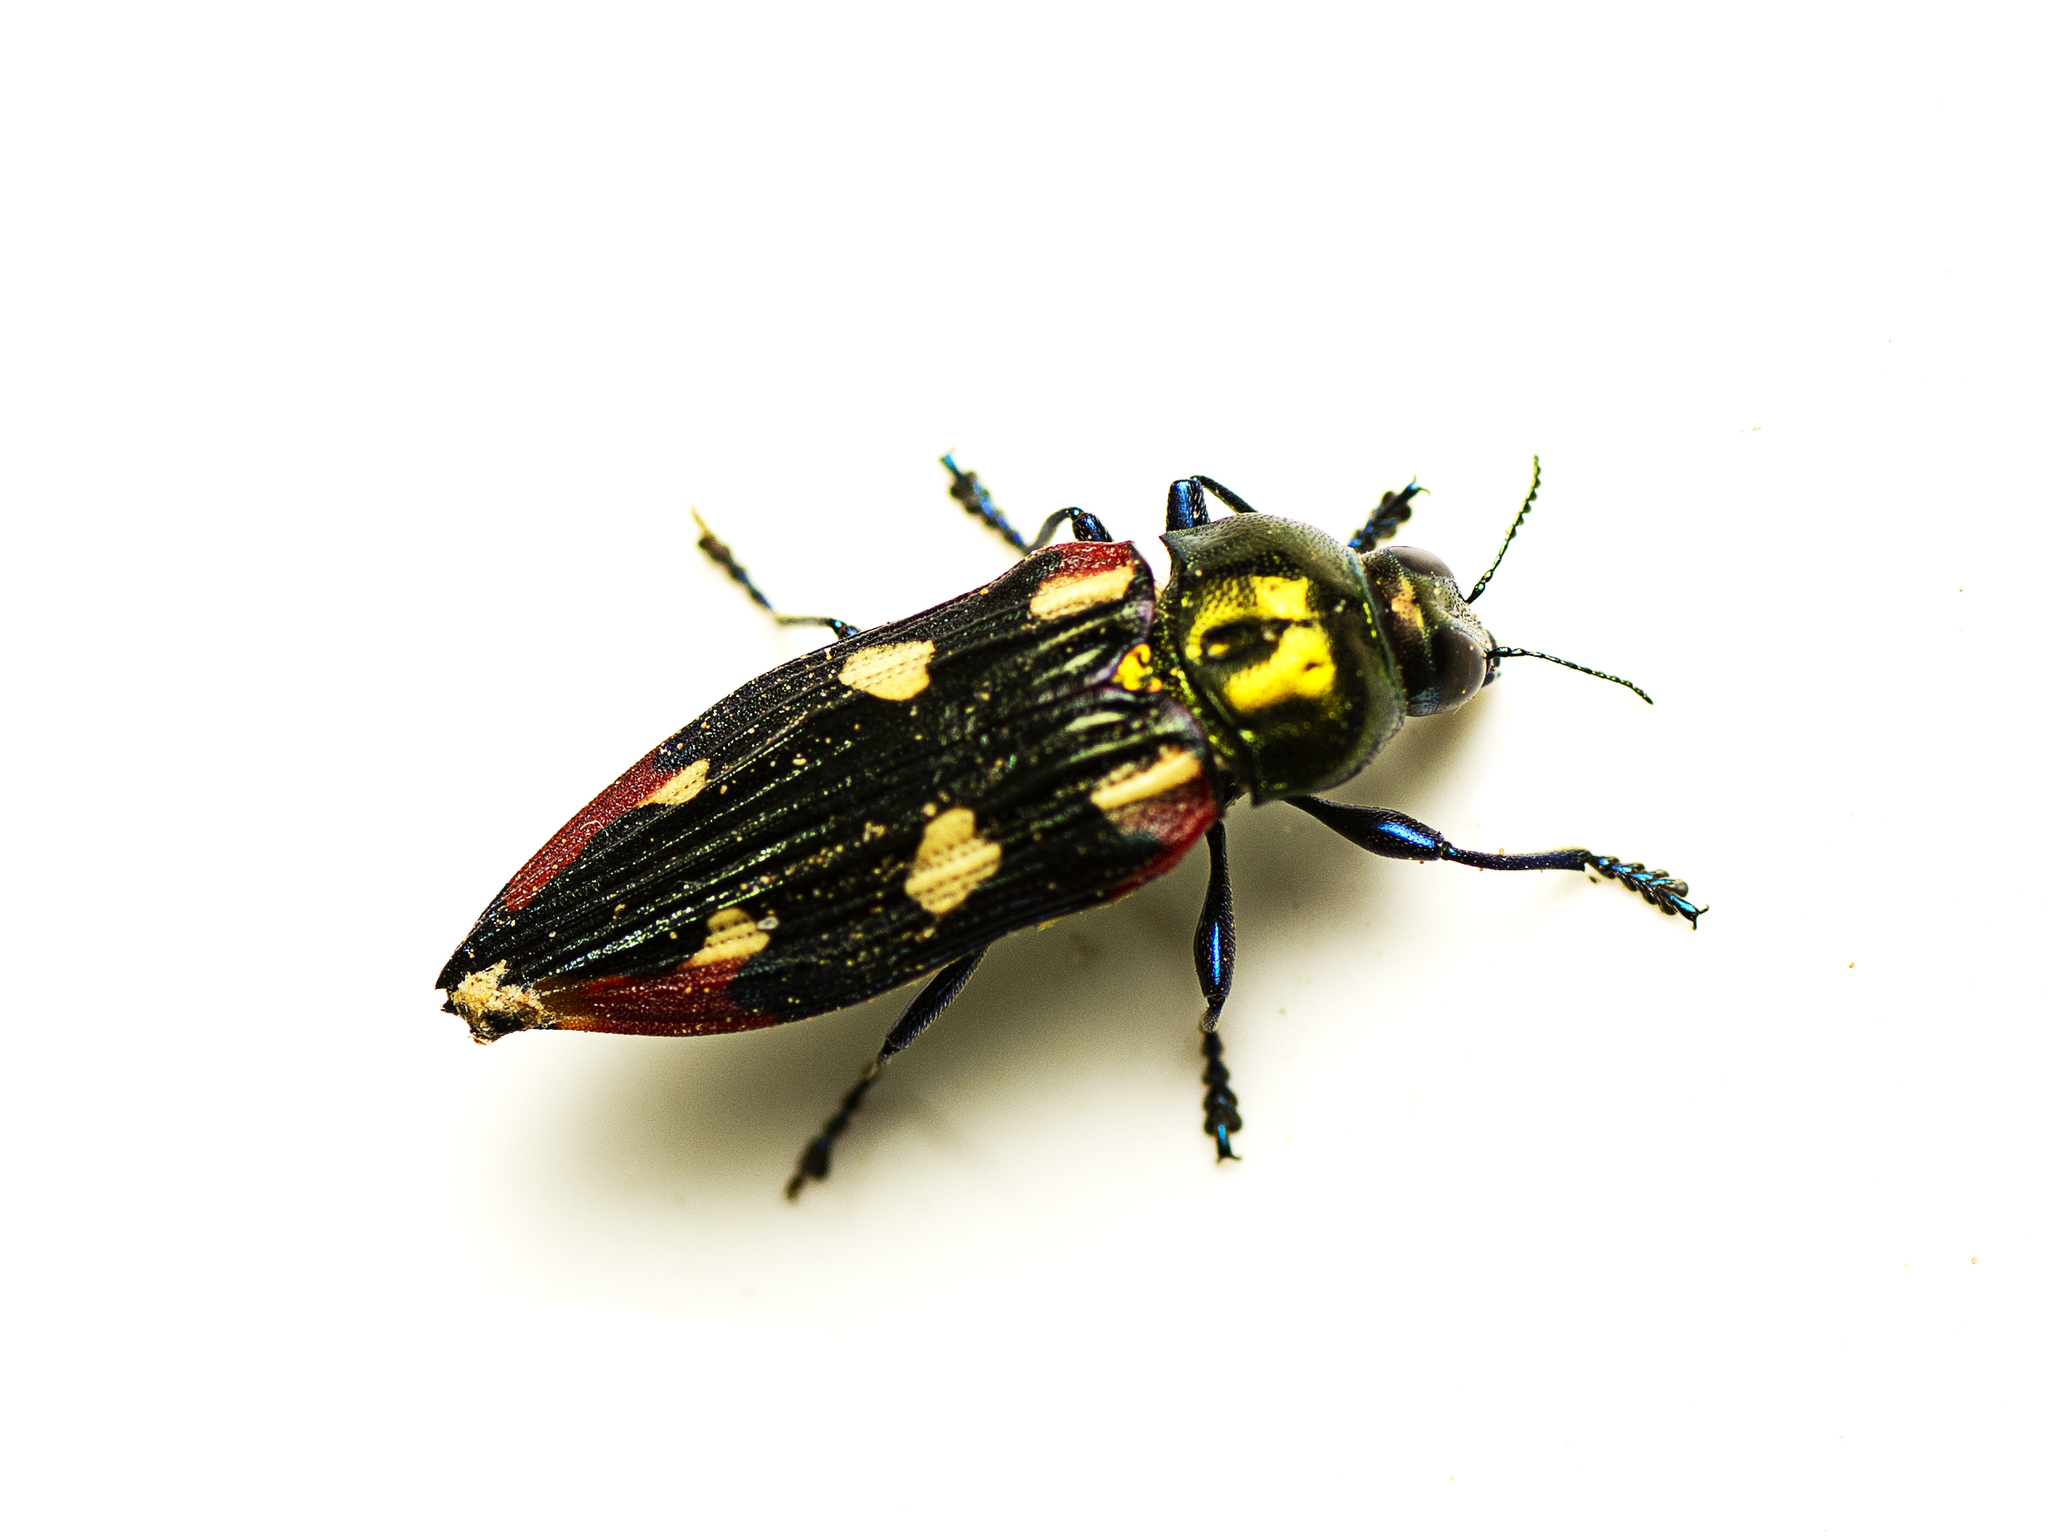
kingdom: Animalia
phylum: Arthropoda
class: Insecta
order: Coleoptera
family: Buprestidae
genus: Castiarina
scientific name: Castiarina producta
